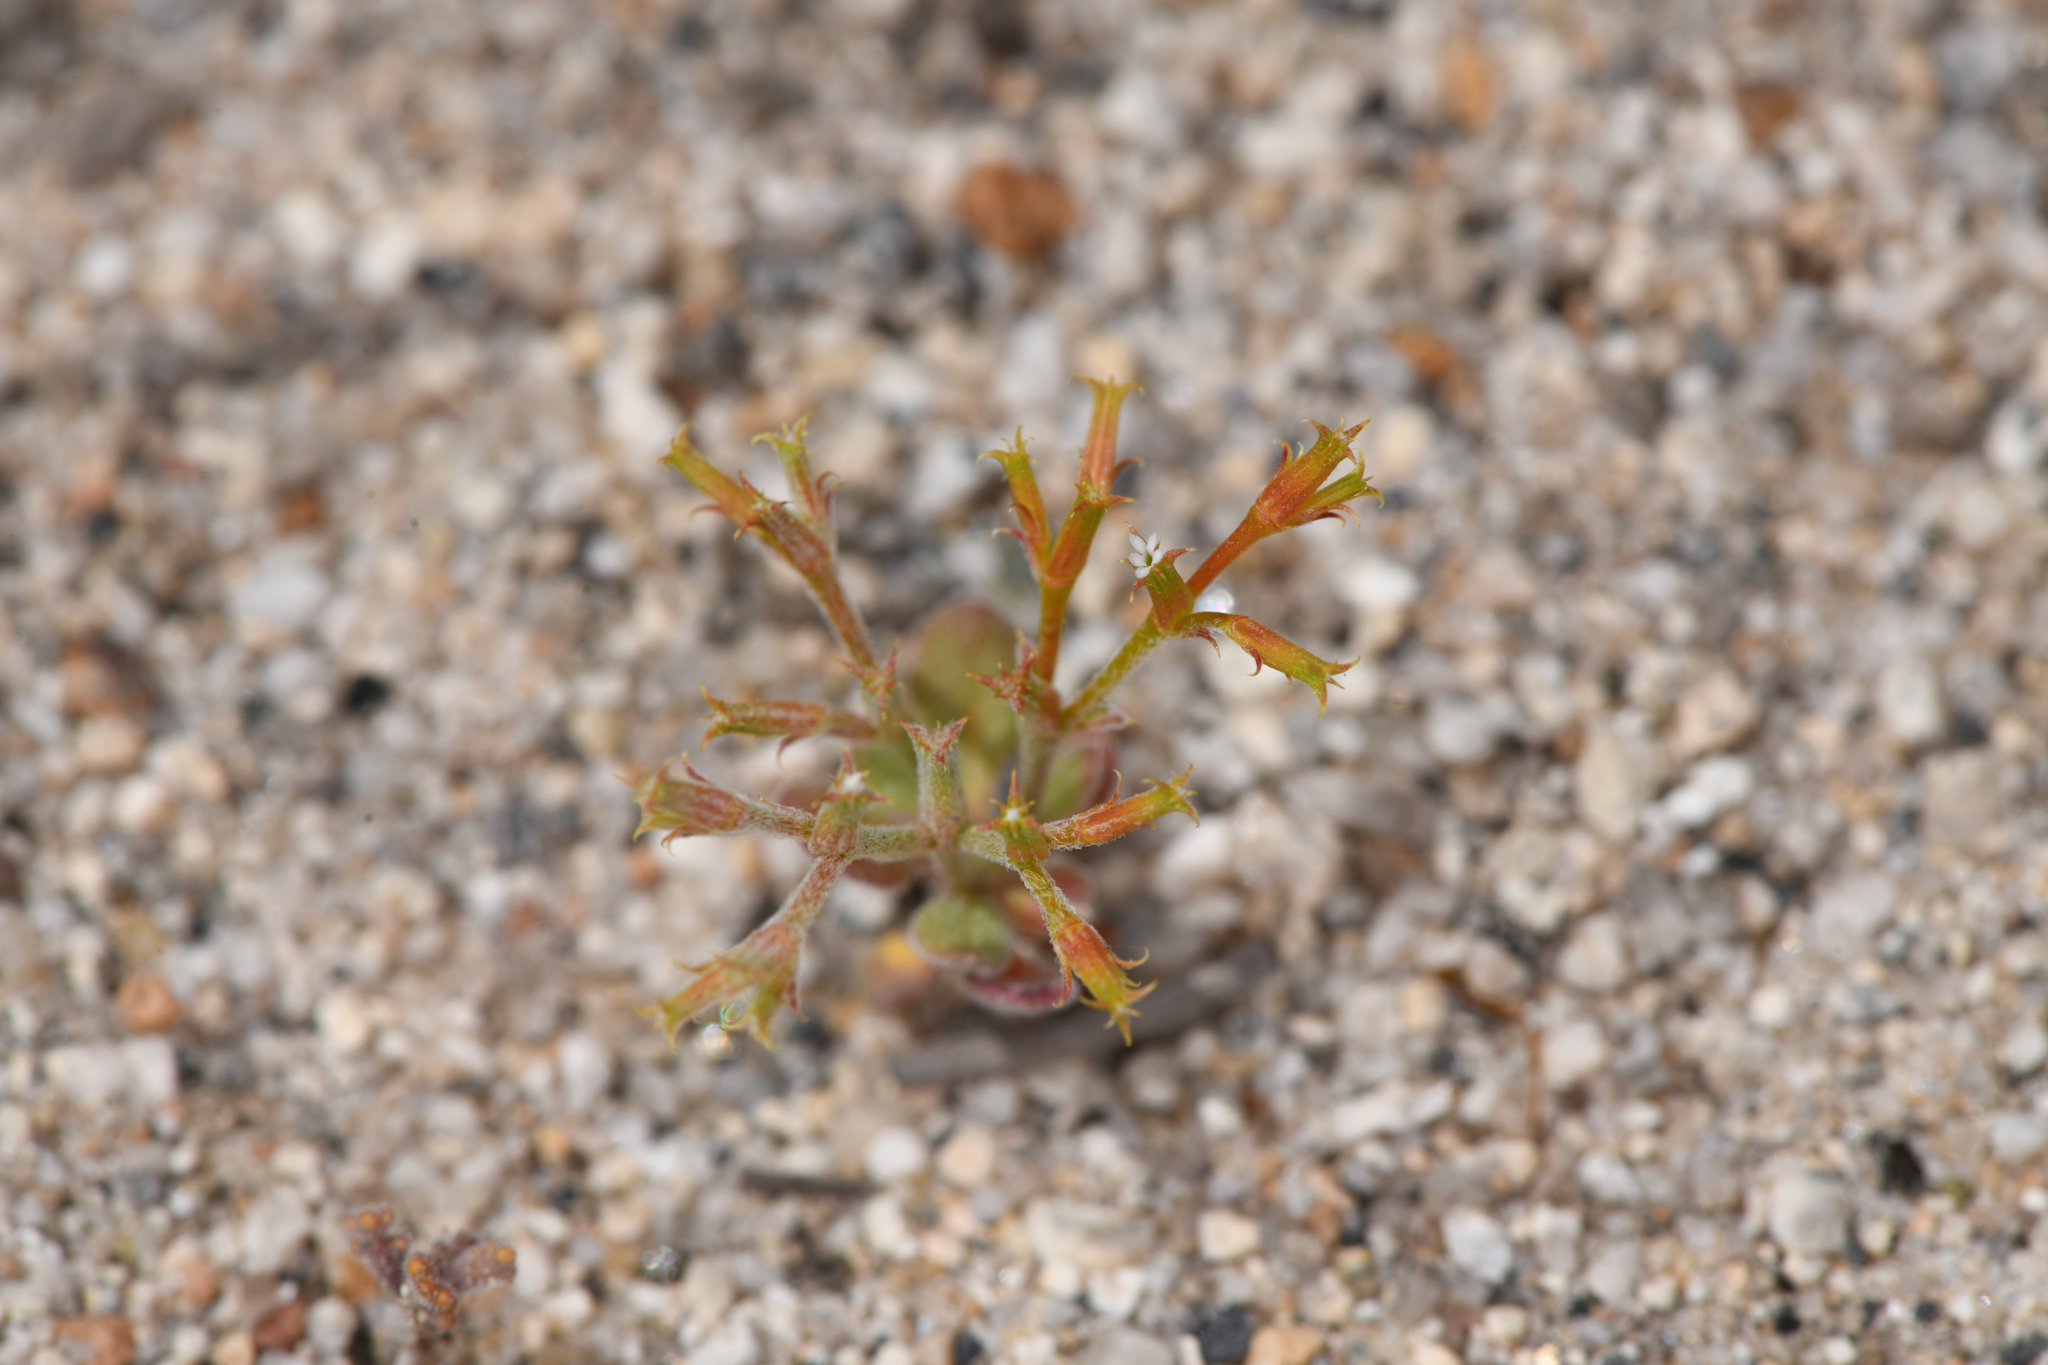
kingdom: Plantae
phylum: Tracheophyta
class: Magnoliopsida
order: Caryophyllales
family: Polygonaceae
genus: Chorizanthe
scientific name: Chorizanthe brevicornu
